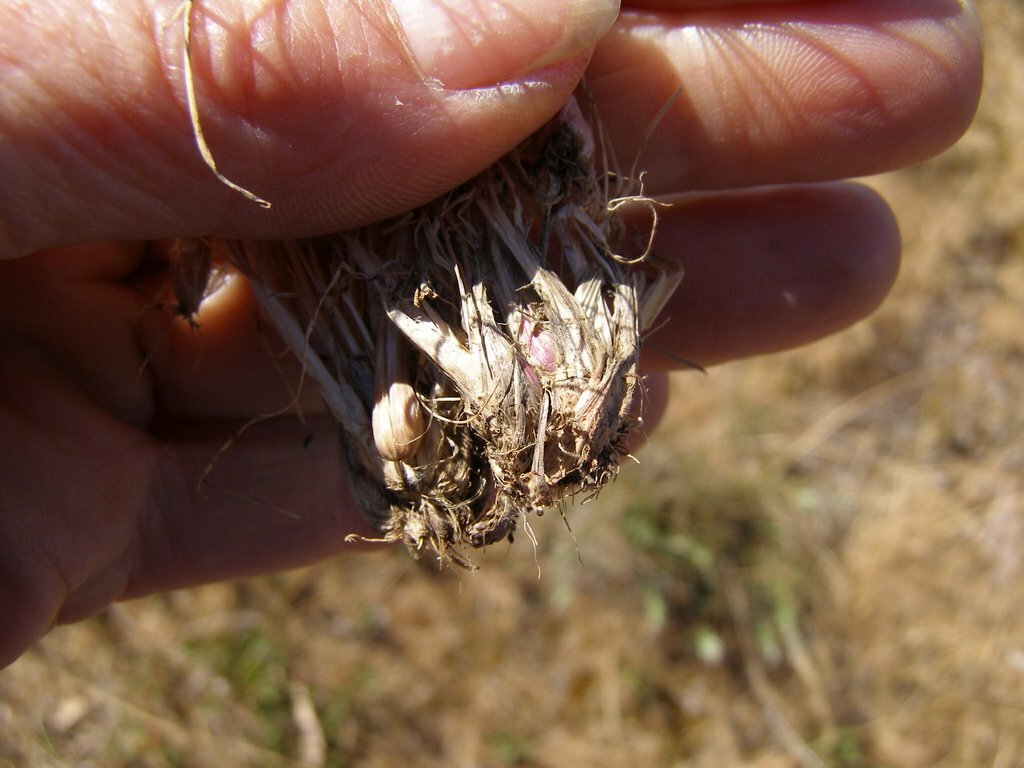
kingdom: Plantae
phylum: Tracheophyta
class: Liliopsida
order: Poales
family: Poaceae
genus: Poa
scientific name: Poa bulbosa
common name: Bulbous bluegrass
